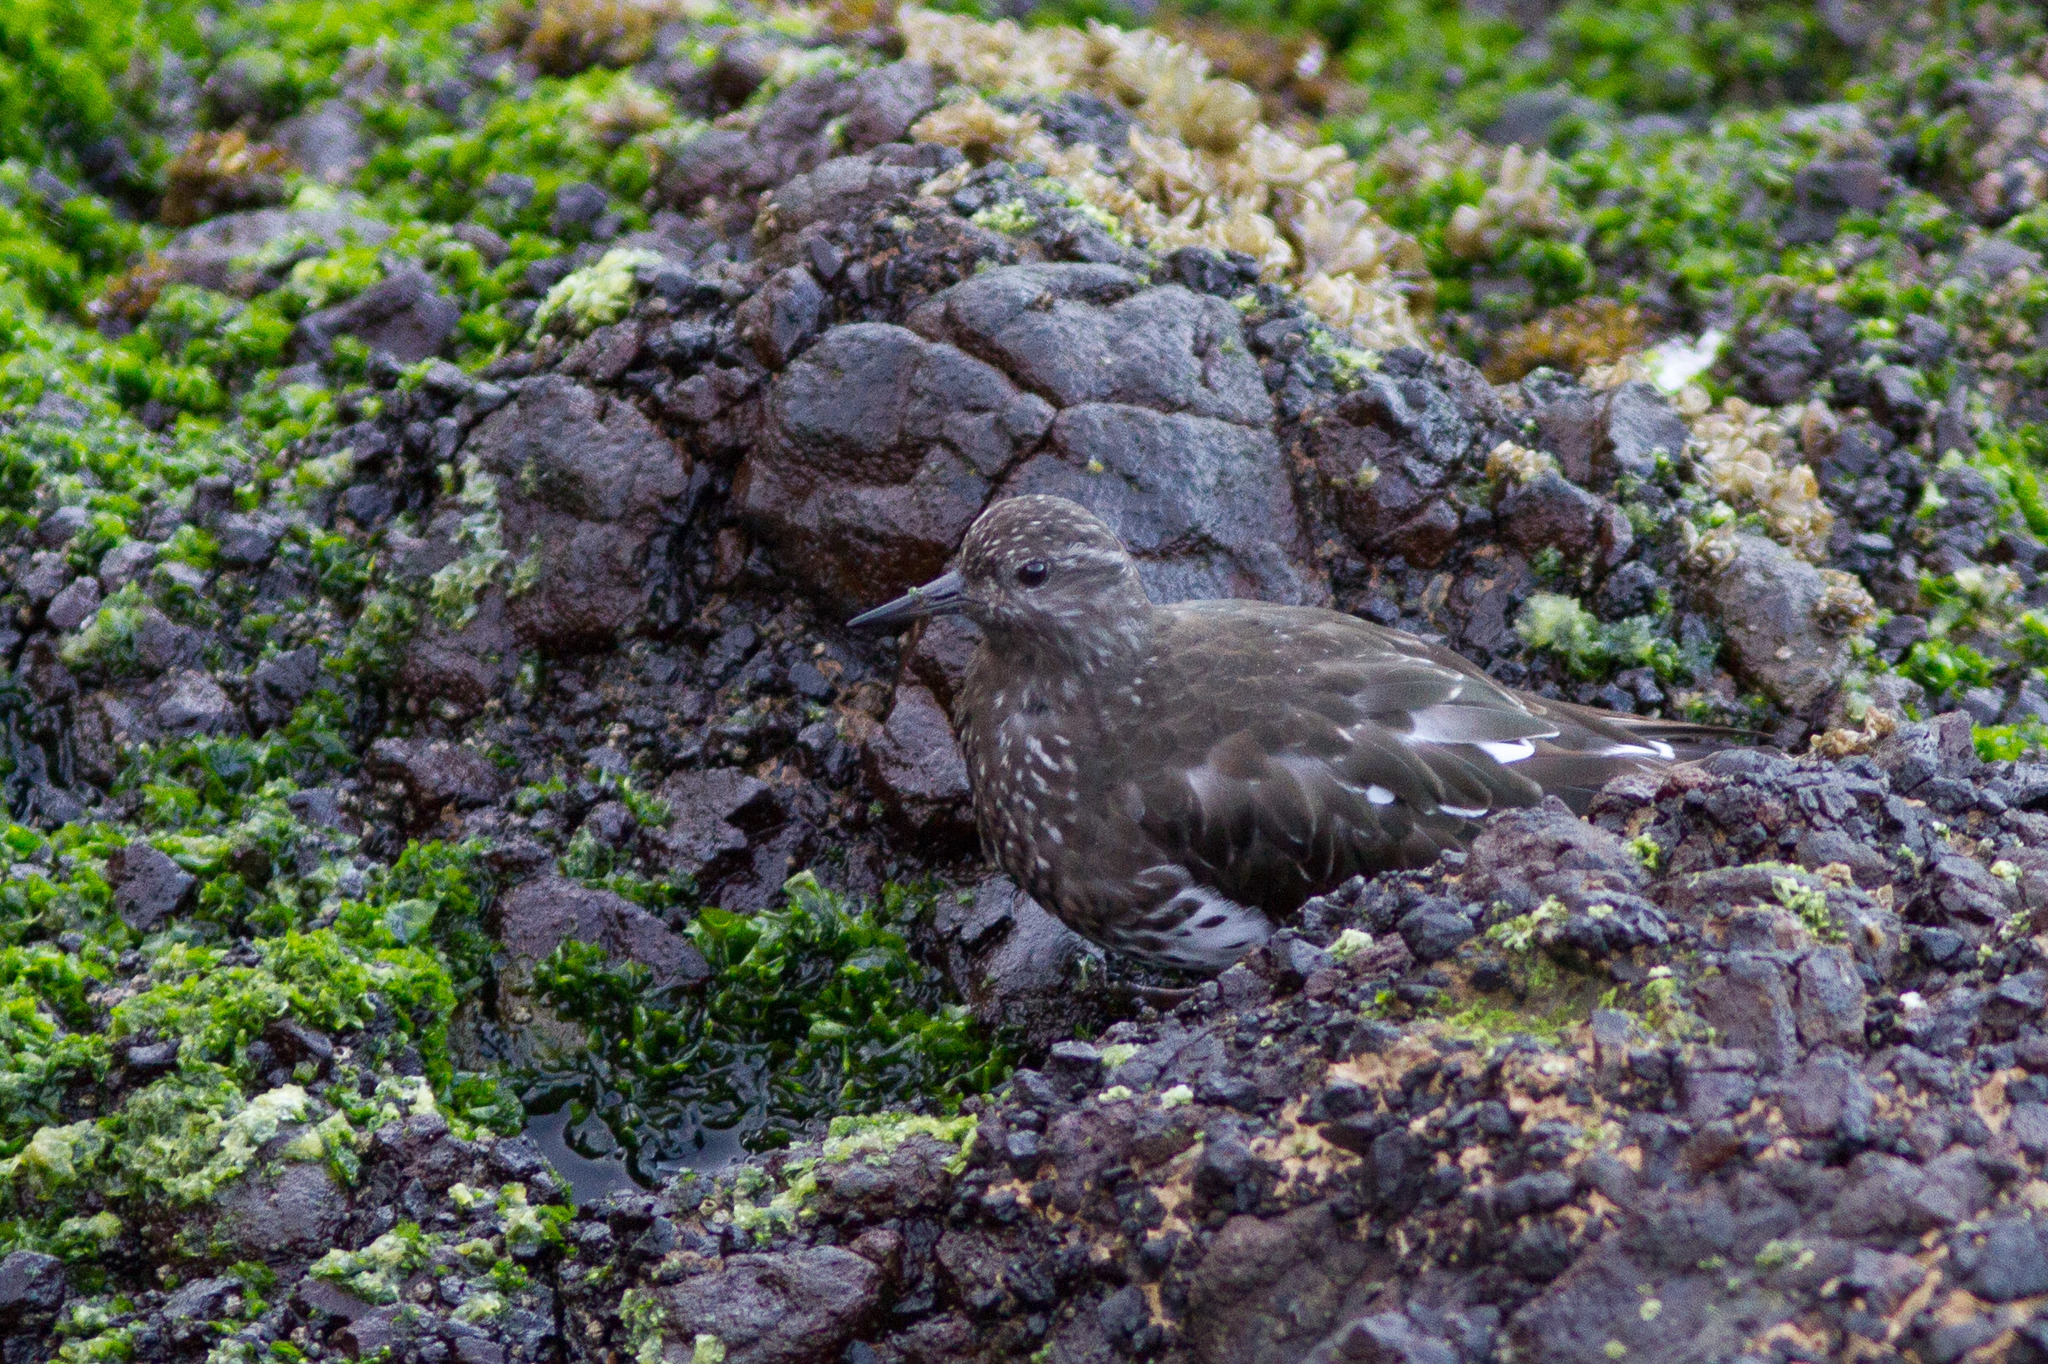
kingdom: Animalia
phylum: Chordata
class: Aves
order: Charadriiformes
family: Scolopacidae
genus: Arenaria
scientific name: Arenaria melanocephala
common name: Black turnstone
